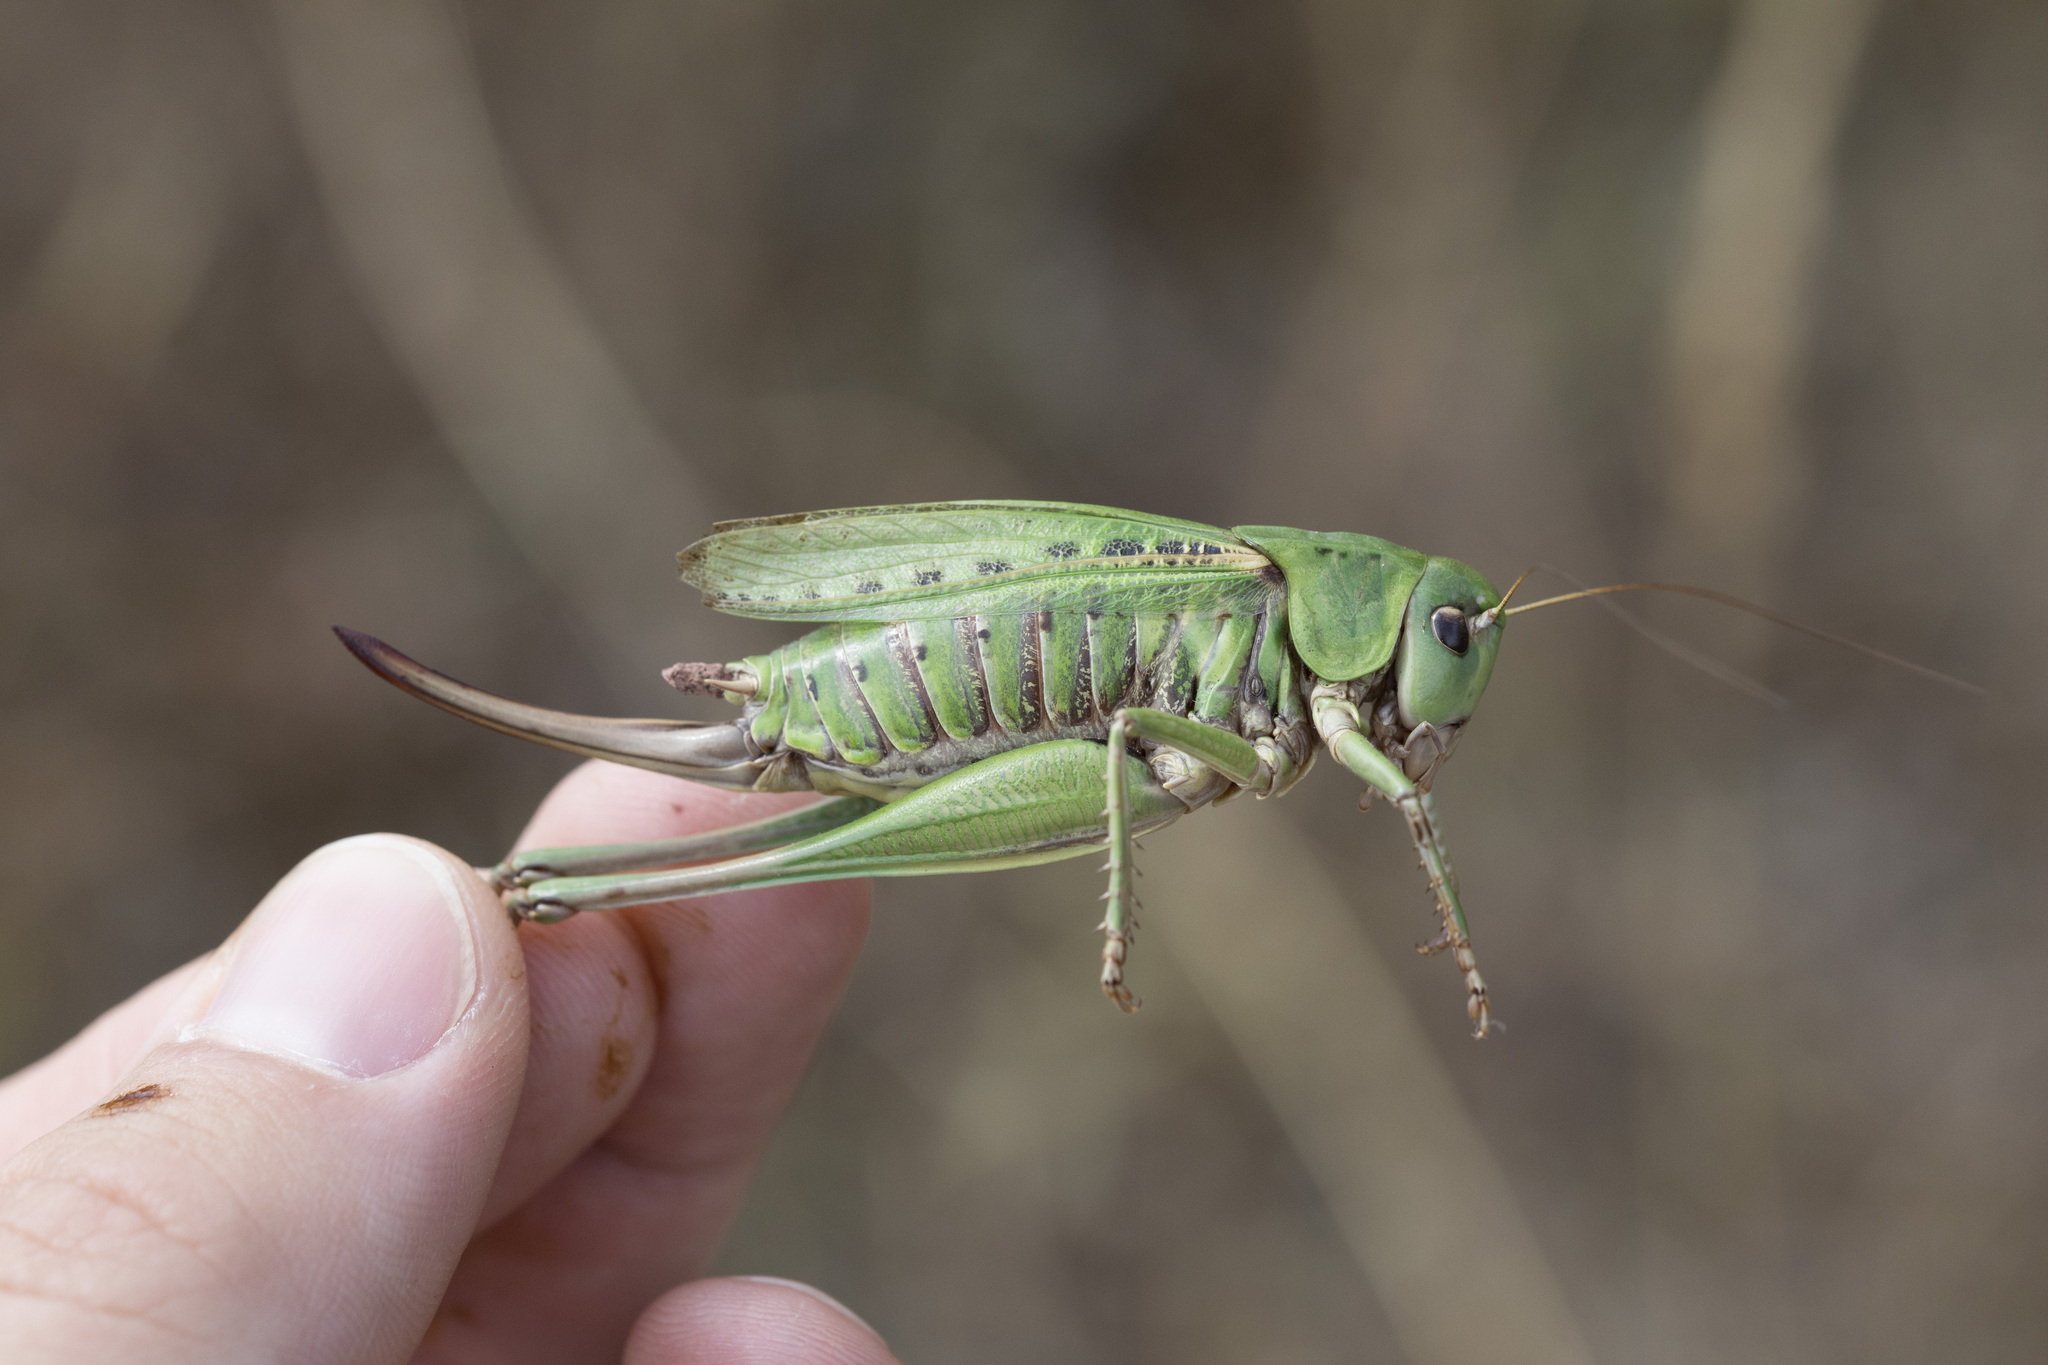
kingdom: Animalia
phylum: Arthropoda
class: Insecta
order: Orthoptera
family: Tettigoniidae
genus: Decticus
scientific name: Decticus verrucivorus
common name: Wart-biter
